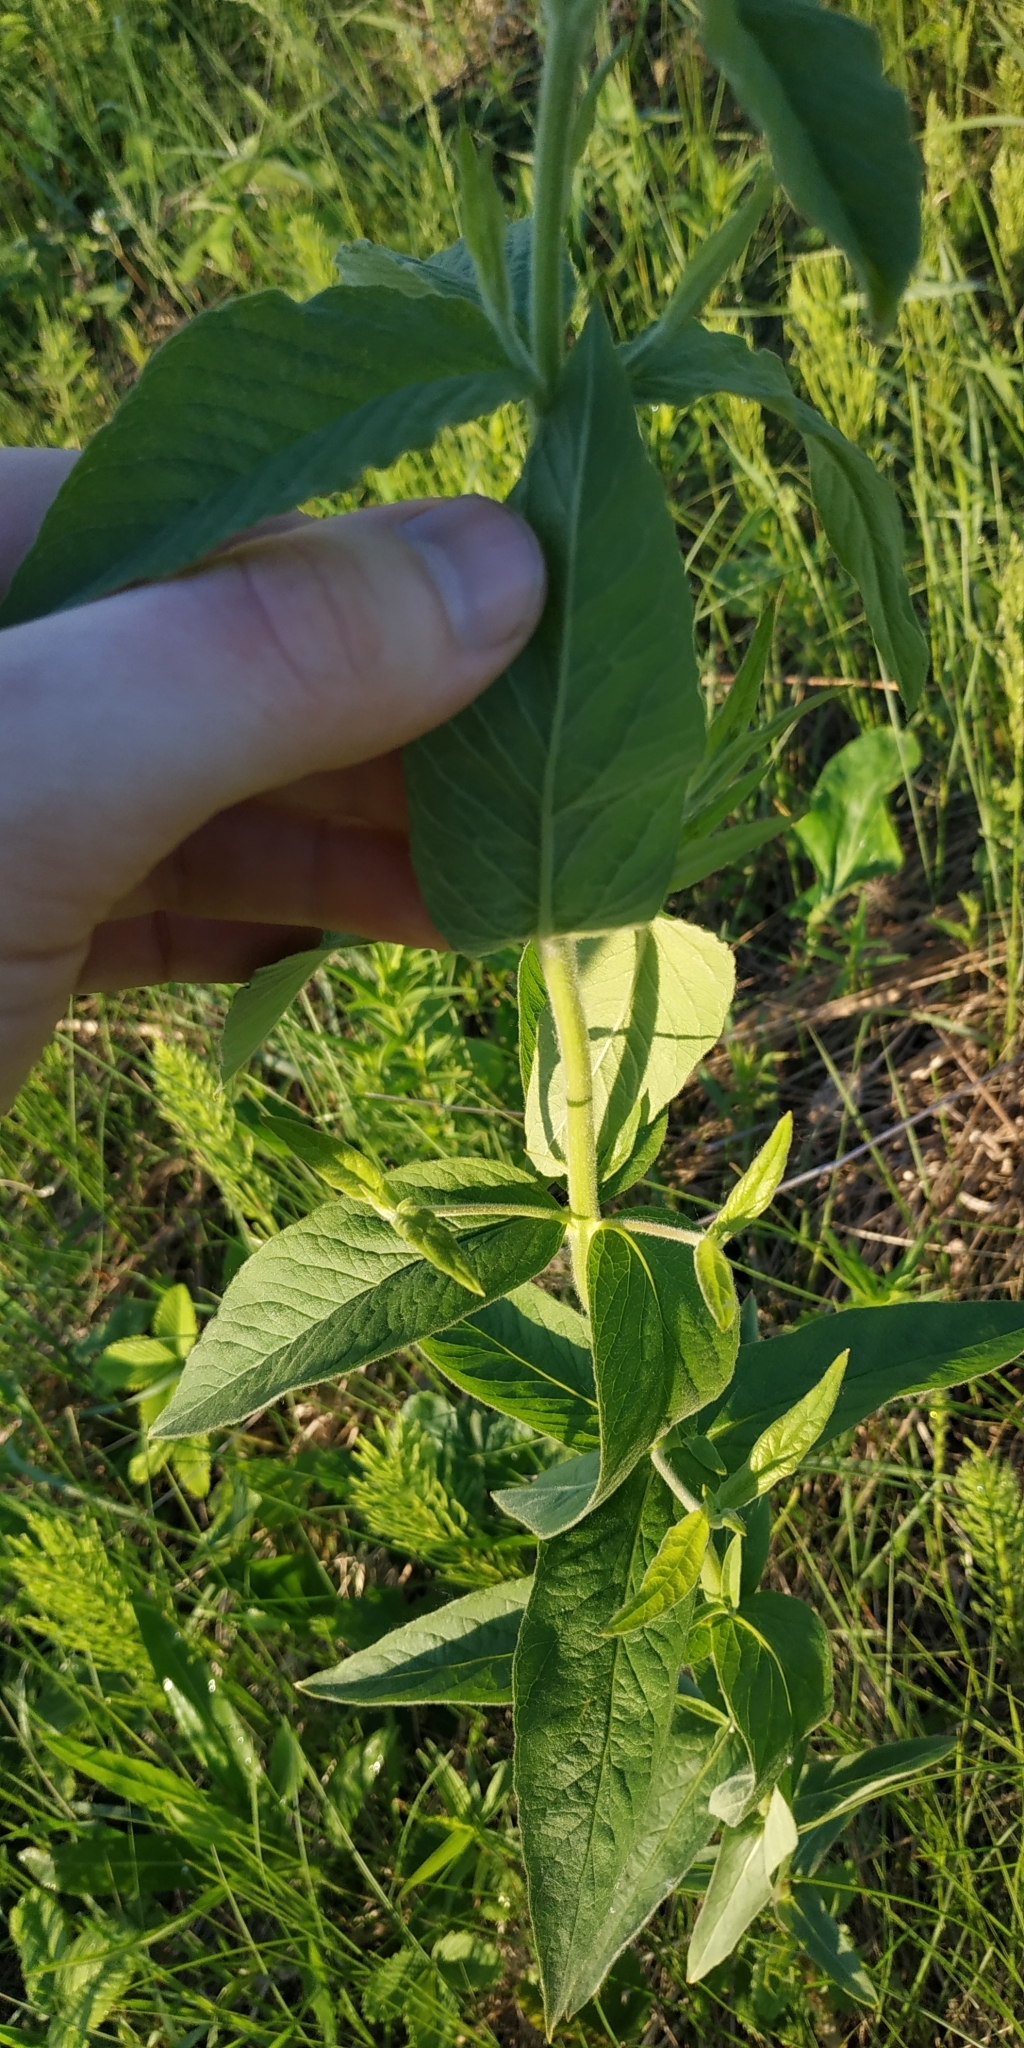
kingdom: Plantae
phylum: Tracheophyta
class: Magnoliopsida
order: Ericales
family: Primulaceae
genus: Lysimachia
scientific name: Lysimachia vulgaris
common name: Yellow loosestrife
